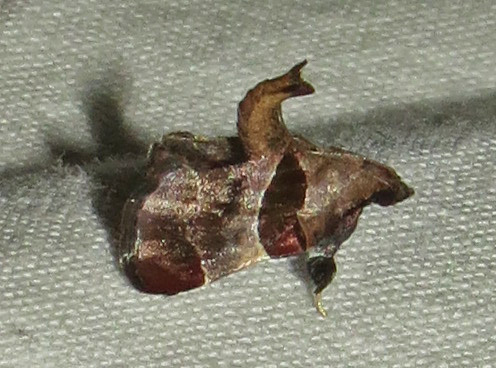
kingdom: Animalia
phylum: Arthropoda
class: Insecta
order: Lepidoptera
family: Pyralidae
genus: Tosale
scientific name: Tosale oviplagalis
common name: Dimorphic tosale moth
